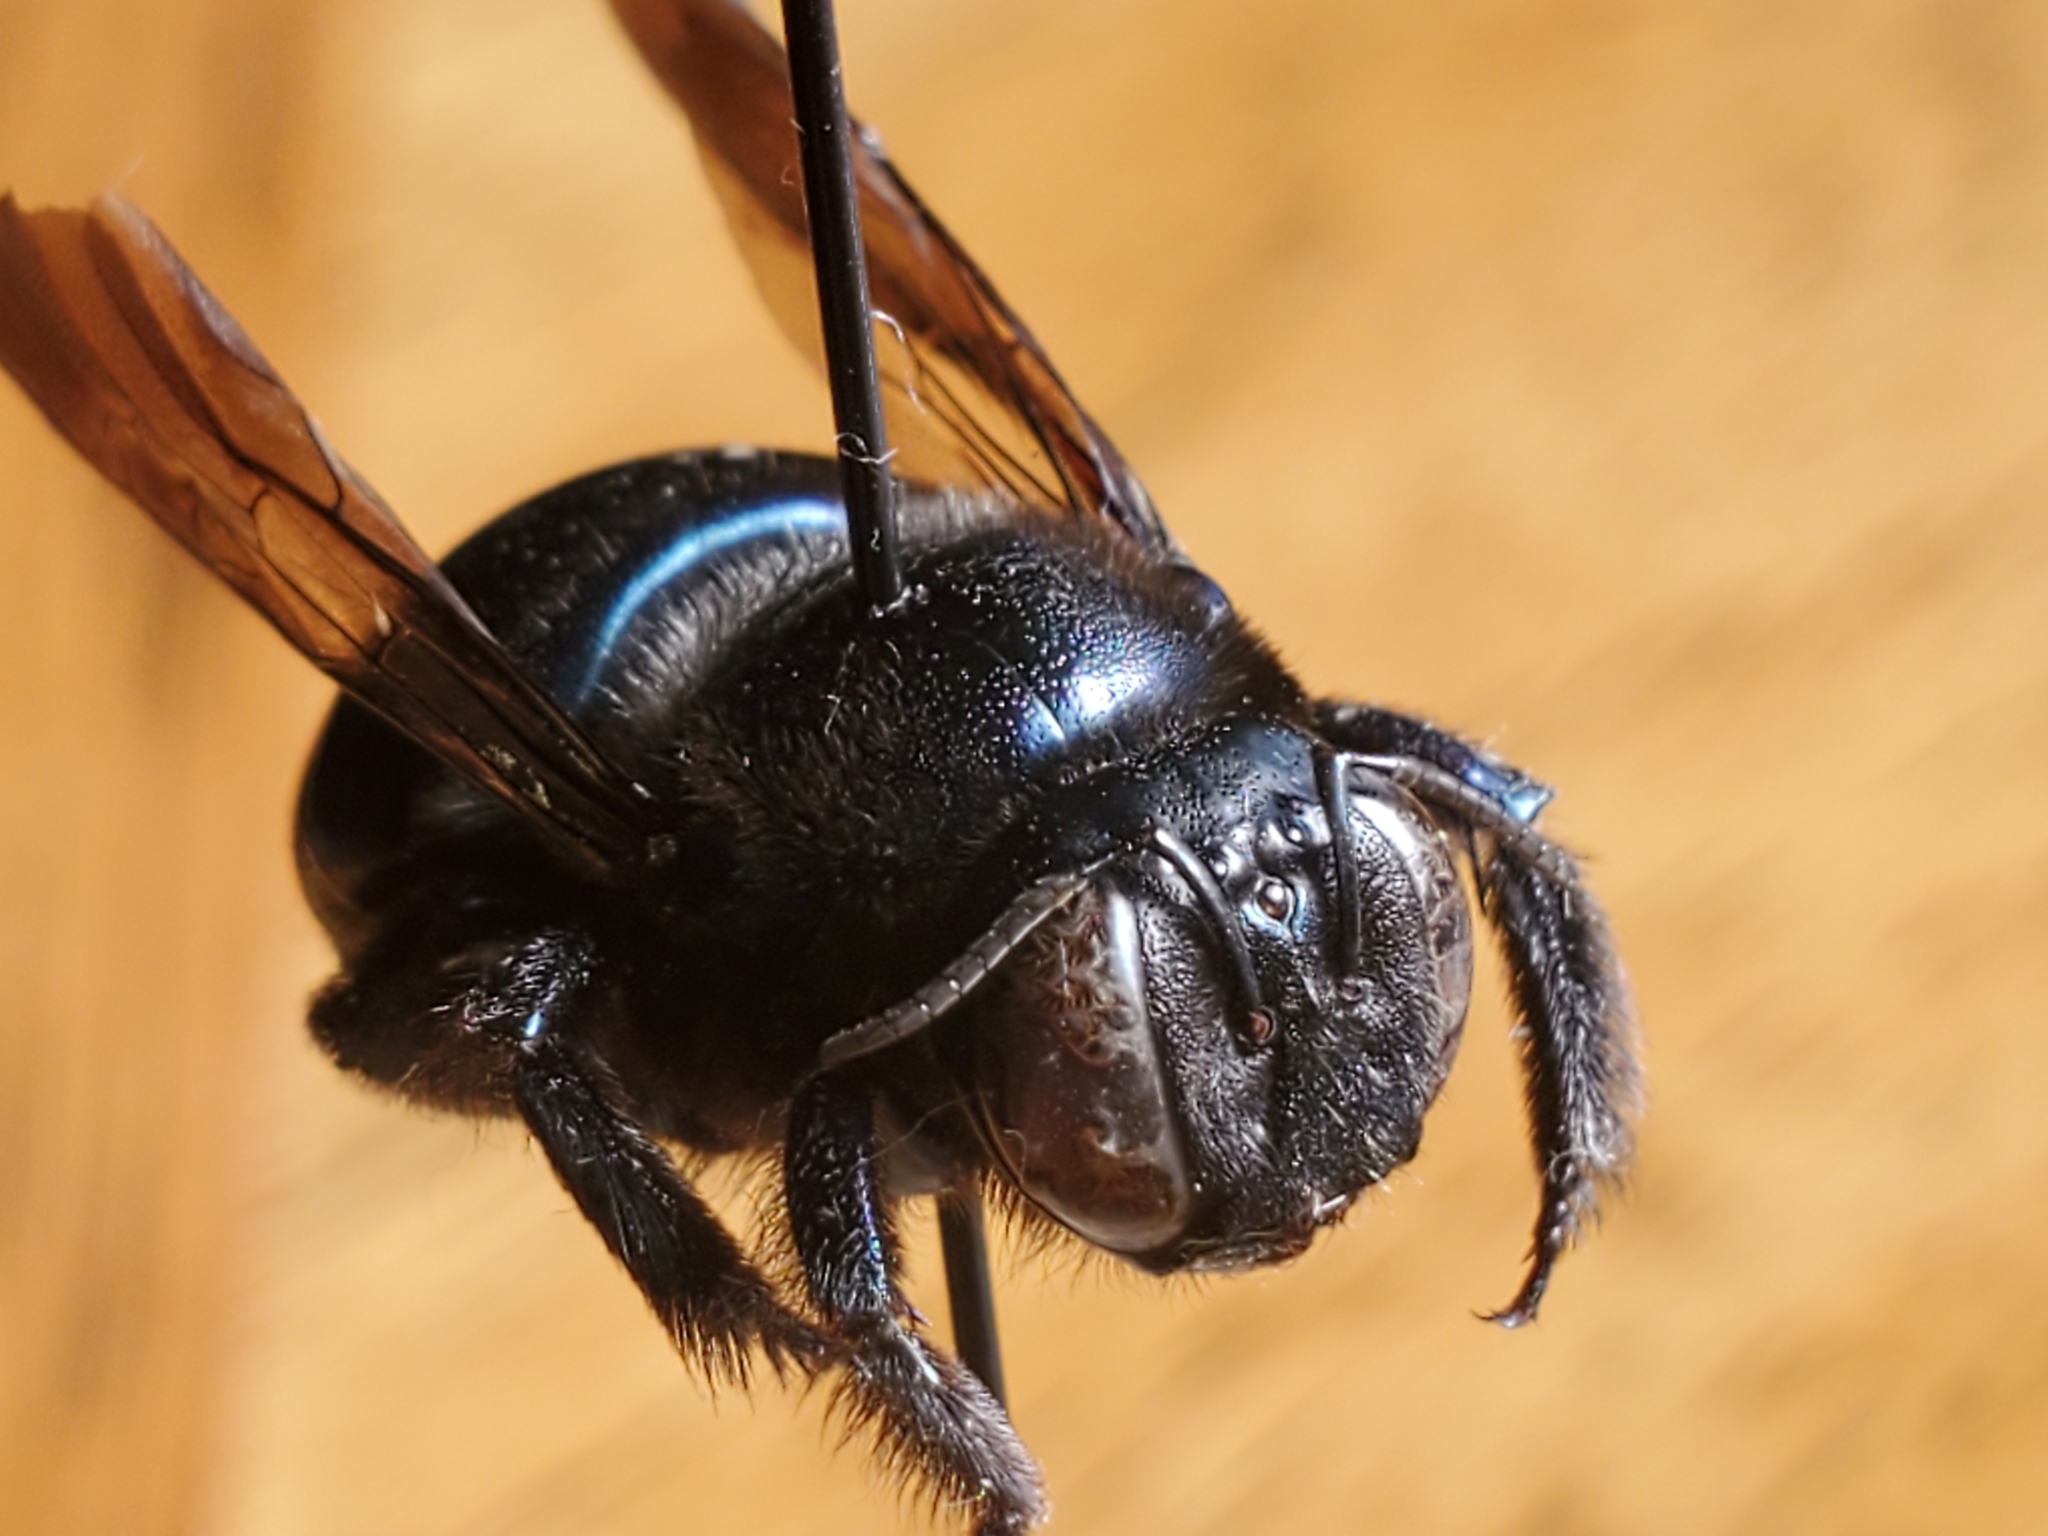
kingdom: Animalia
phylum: Arthropoda
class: Insecta
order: Hymenoptera
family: Apidae
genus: Xylocopa
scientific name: Xylocopa micans
